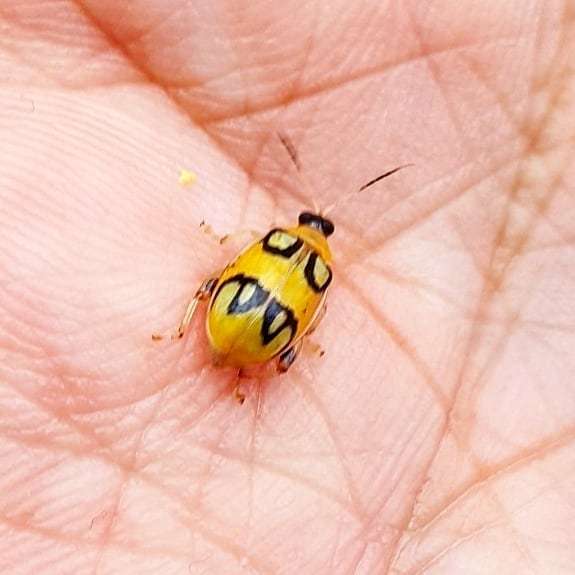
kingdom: Animalia
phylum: Arthropoda
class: Insecta
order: Coleoptera
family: Chrysomelidae
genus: Walterianella
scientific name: Walterianella
